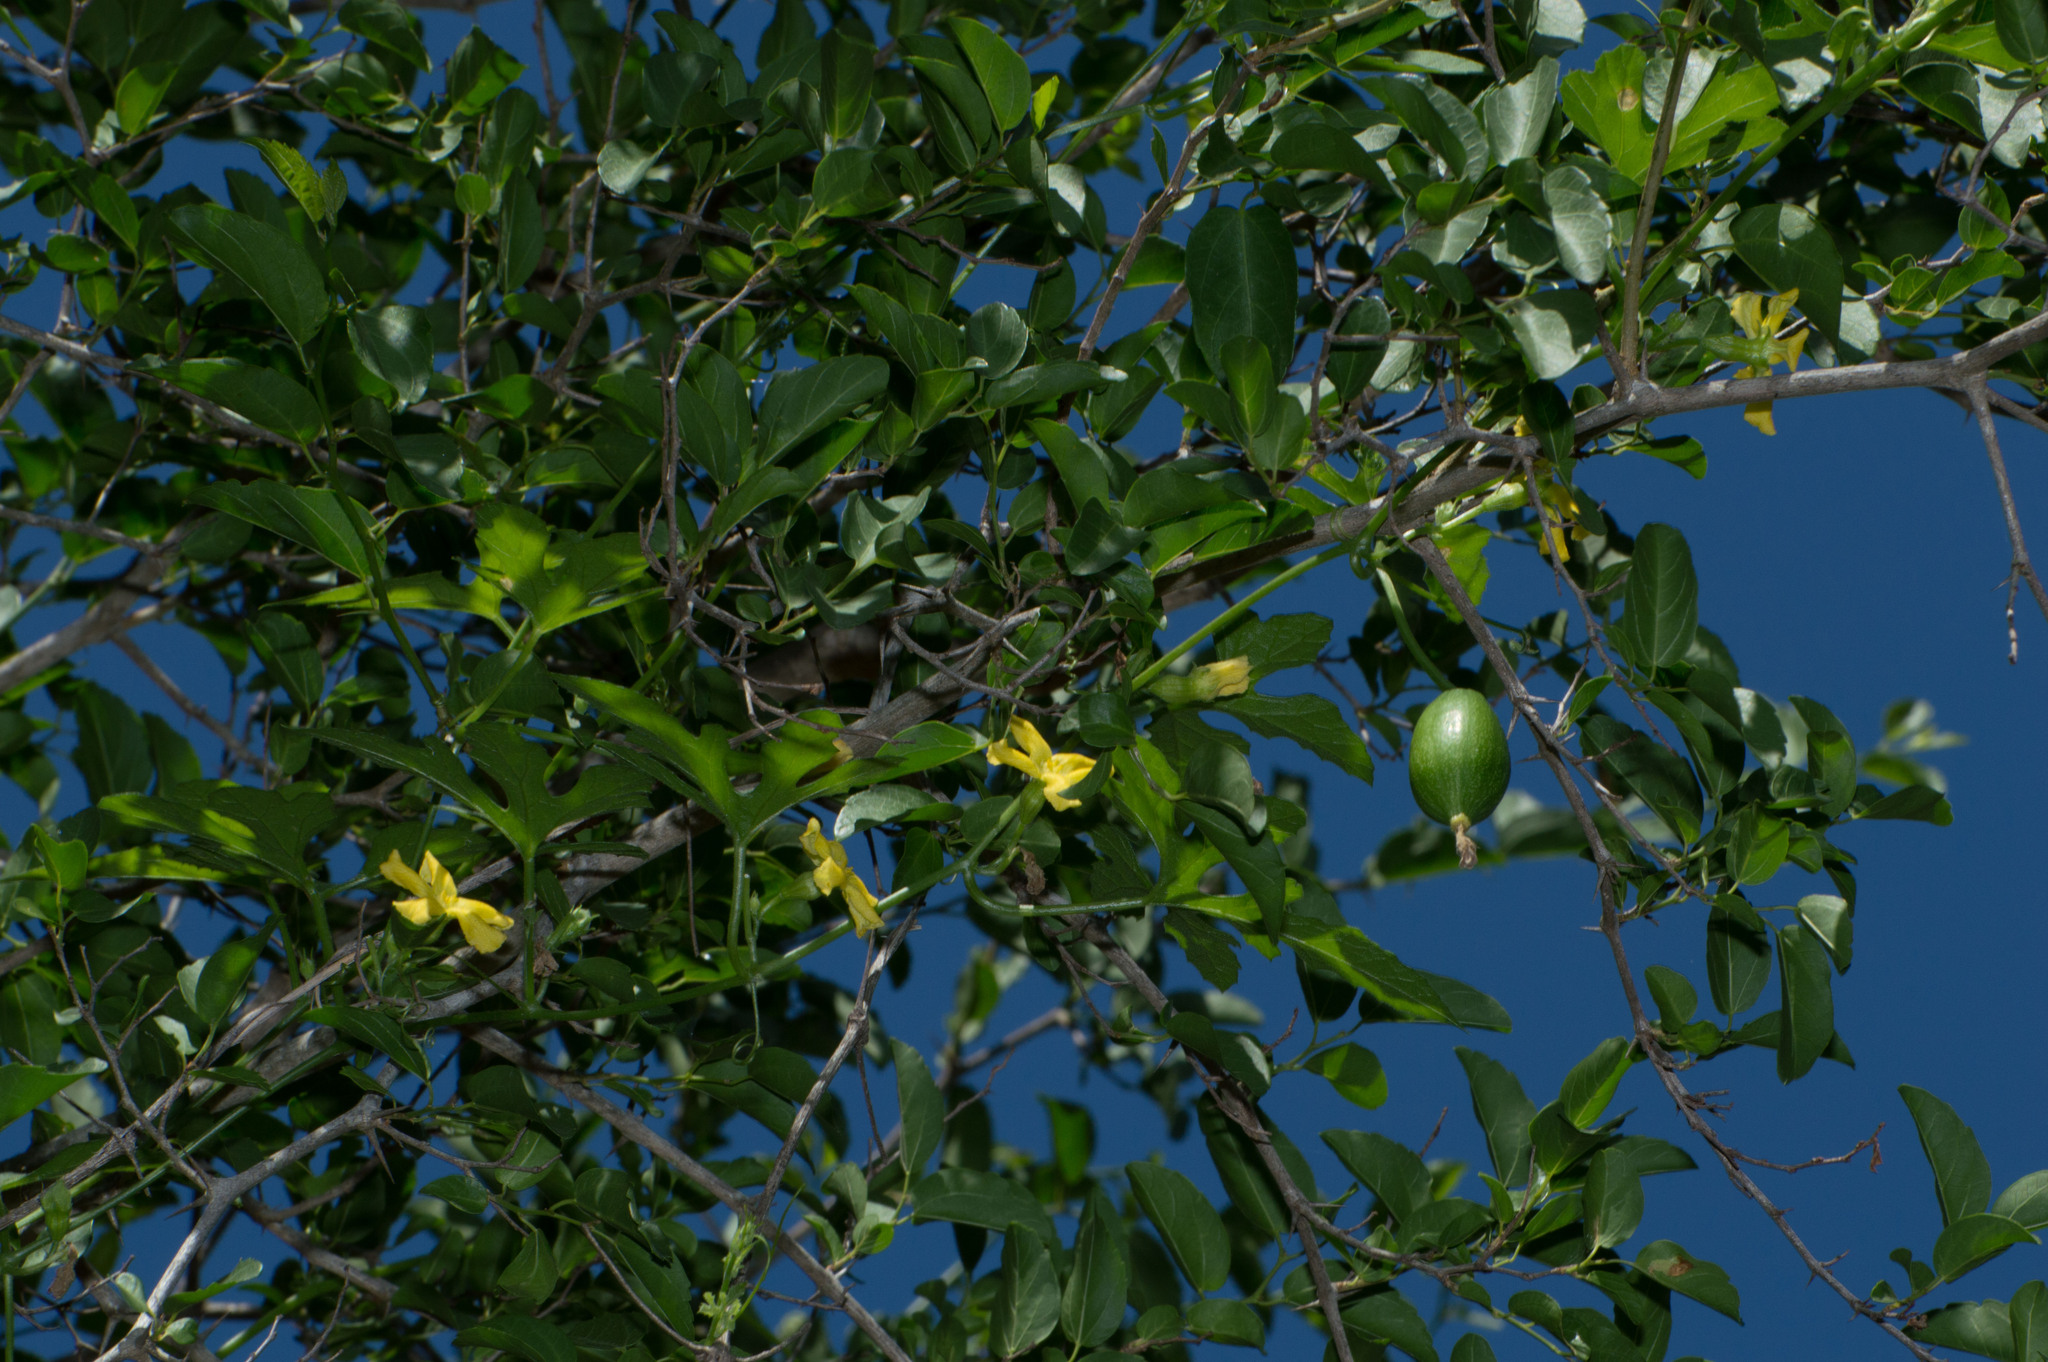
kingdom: Plantae
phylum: Tracheophyta
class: Magnoliopsida
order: Cucurbitales
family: Cucurbitaceae
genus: Cucurbitella
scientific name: Cucurbitella asperata
